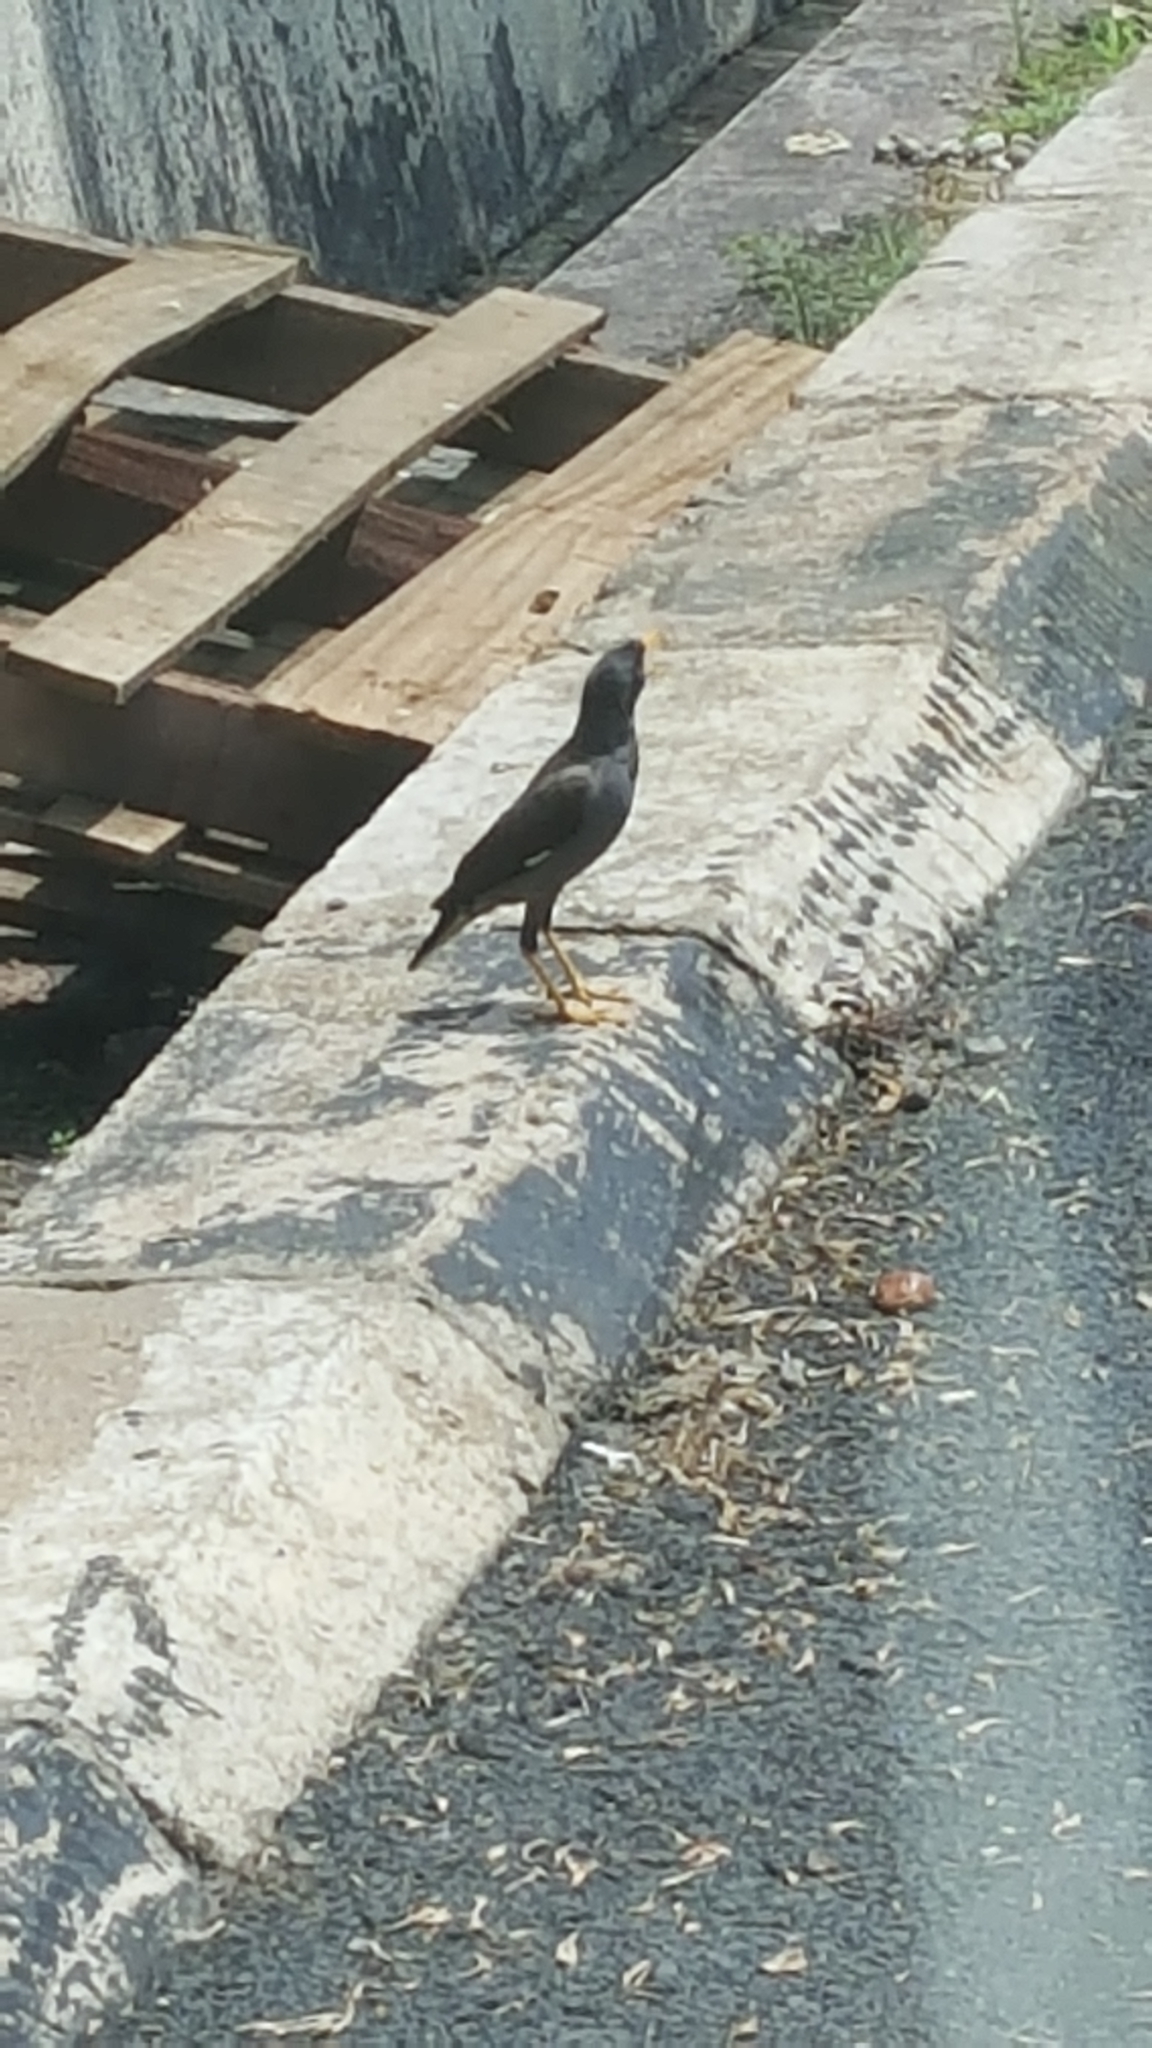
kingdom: Animalia
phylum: Chordata
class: Aves
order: Passeriformes
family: Sturnidae
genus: Acridotheres
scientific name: Acridotheres javanicus
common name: Javan myna
